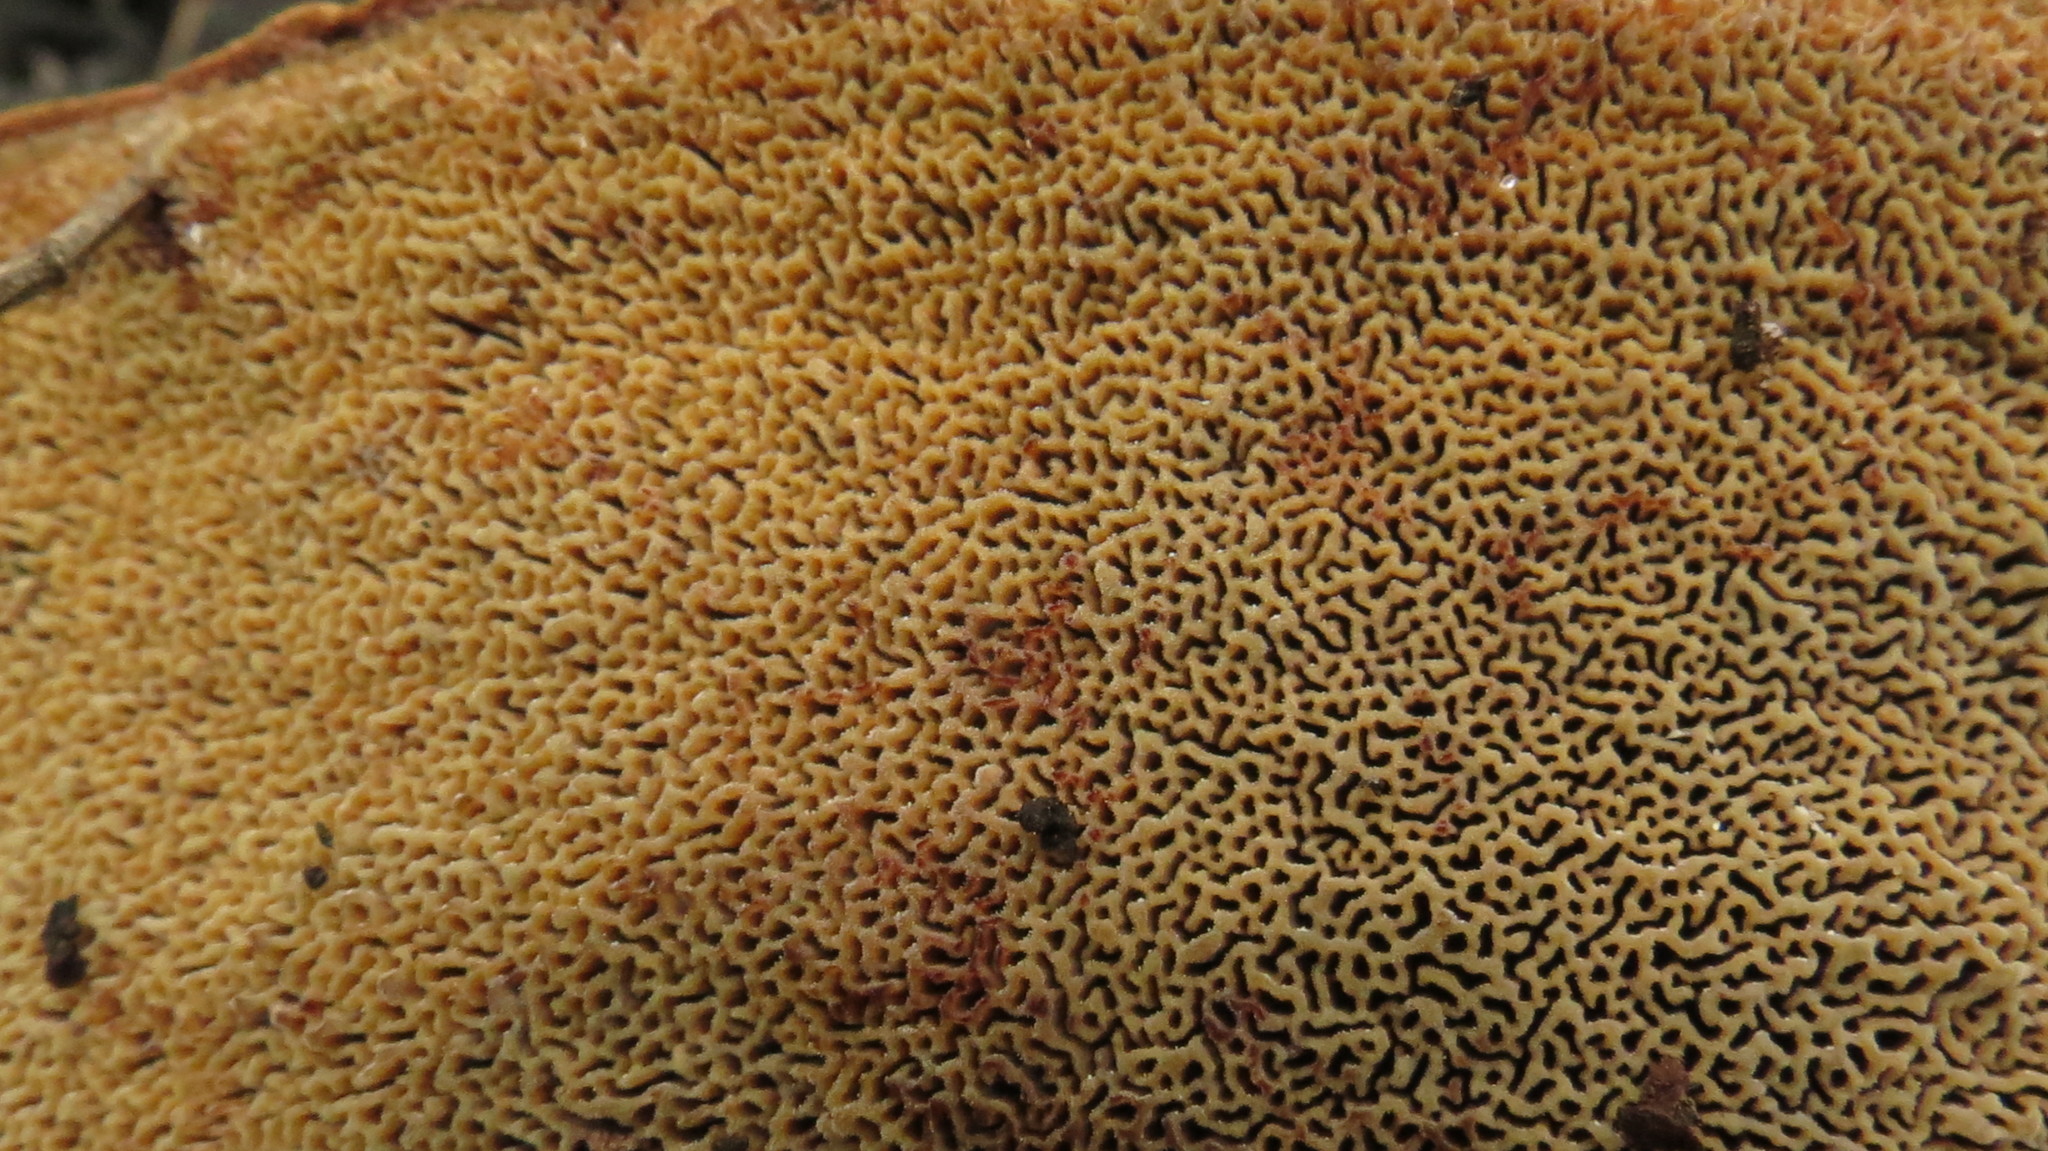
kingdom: Fungi
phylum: Basidiomycota
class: Agaricomycetes
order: Polyporales
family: Laetiporaceae
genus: Phaeolus
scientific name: Phaeolus schweinitzii
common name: Dyer's mazegill
